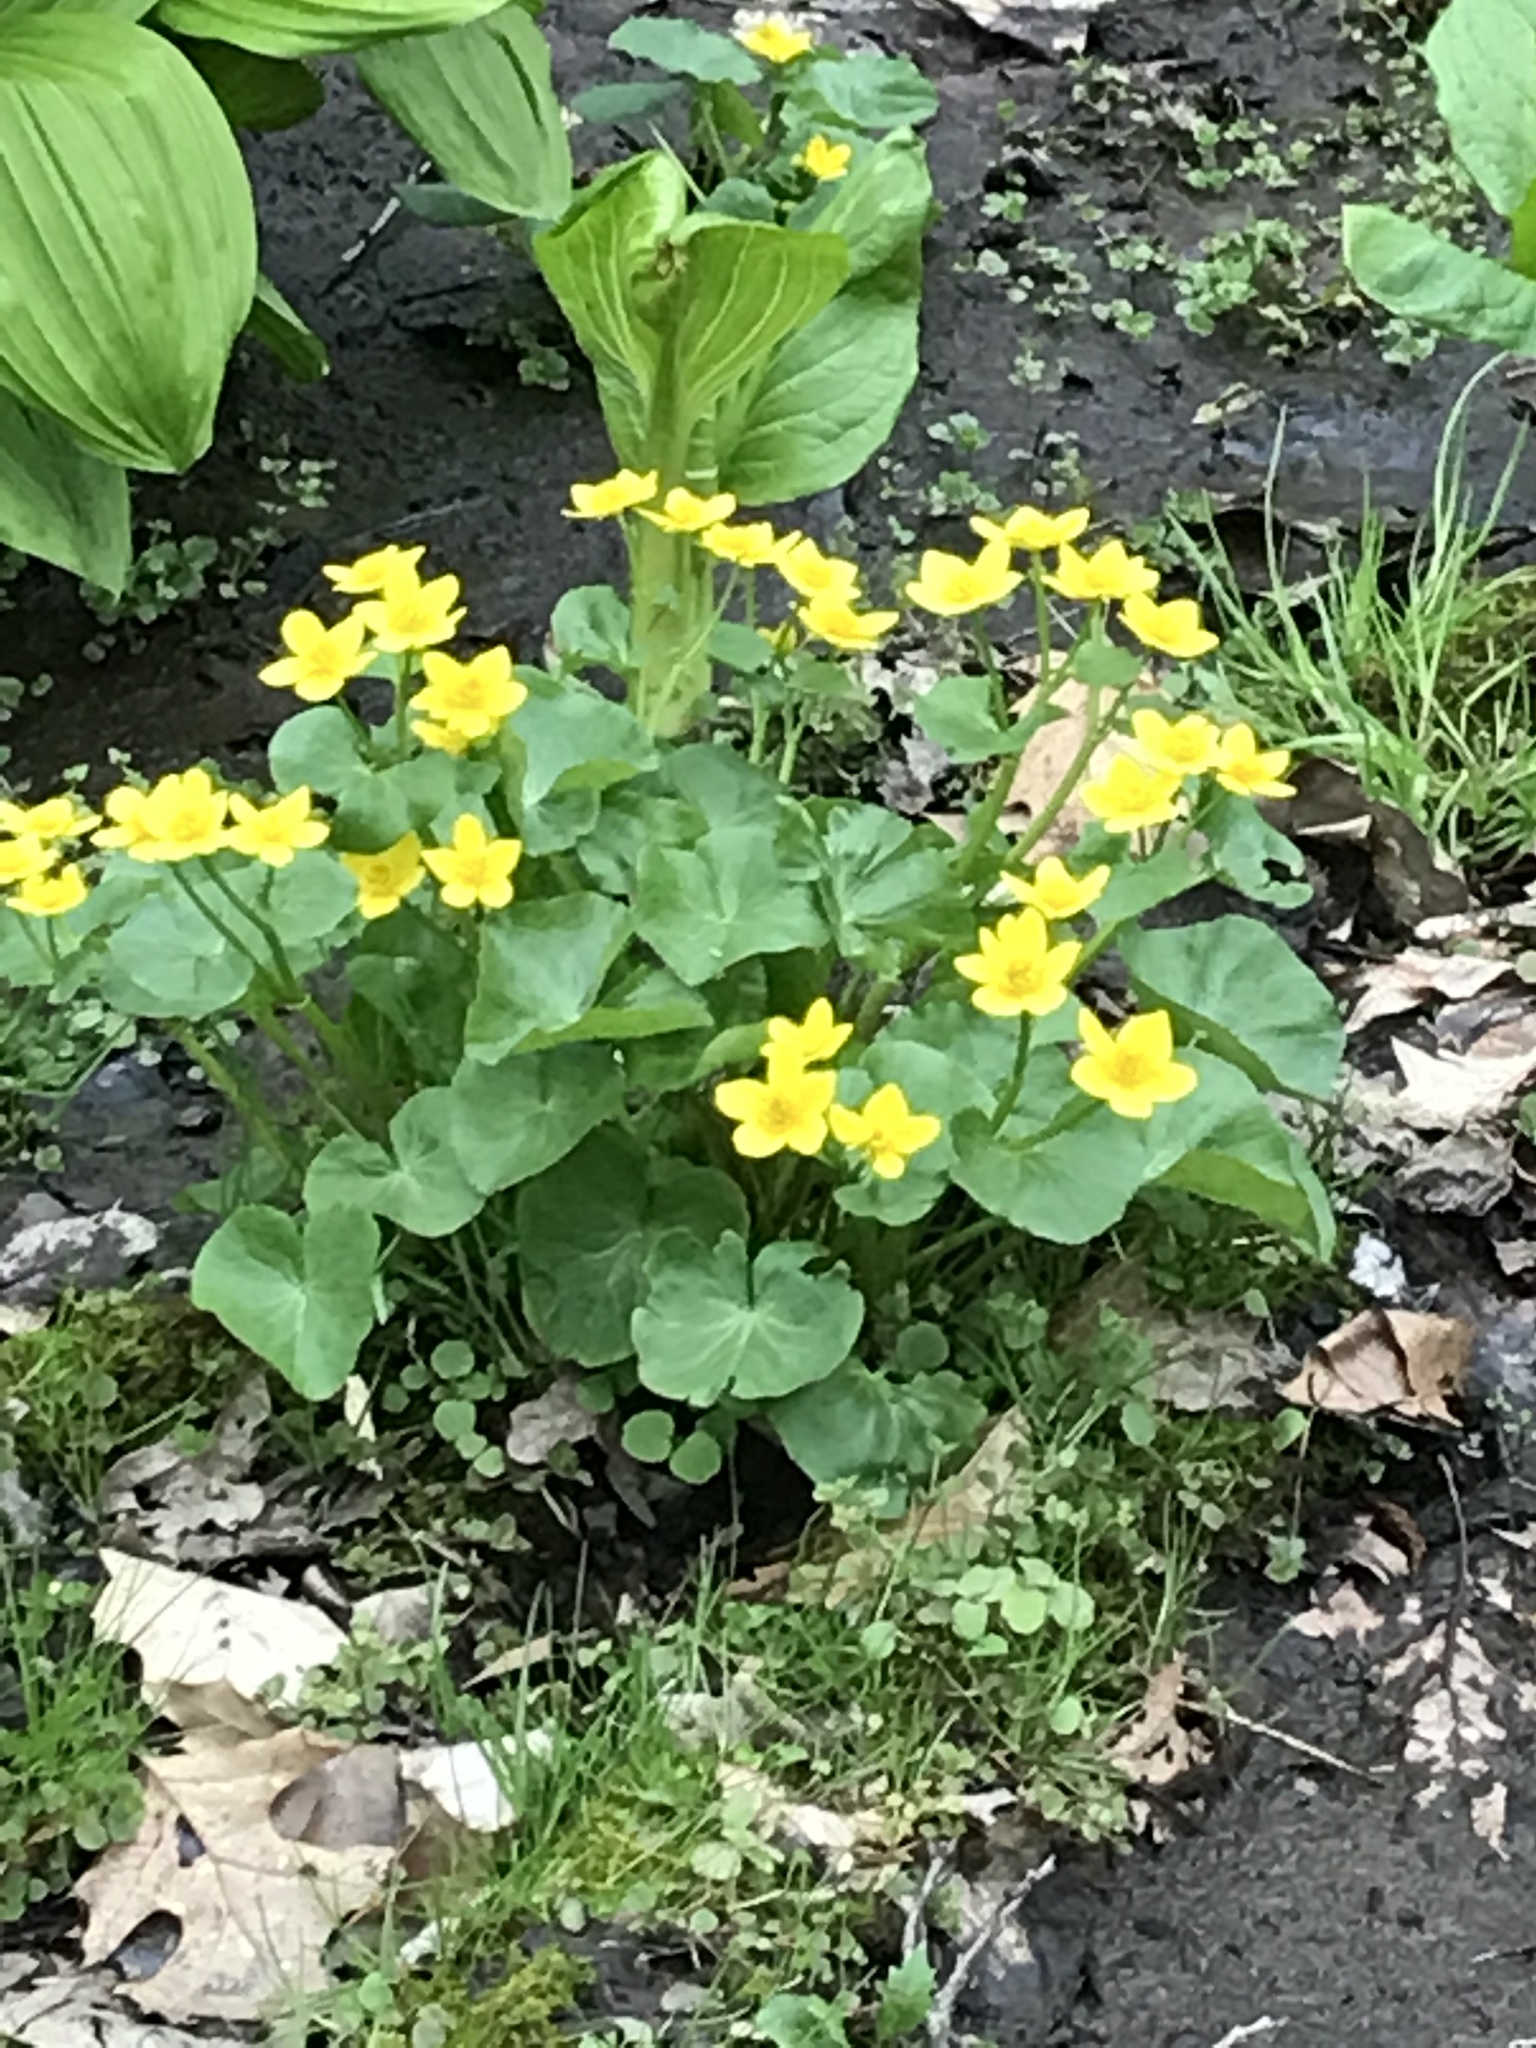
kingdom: Plantae
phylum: Tracheophyta
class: Magnoliopsida
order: Ranunculales
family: Ranunculaceae
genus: Caltha
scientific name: Caltha palustris
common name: Marsh marigold
